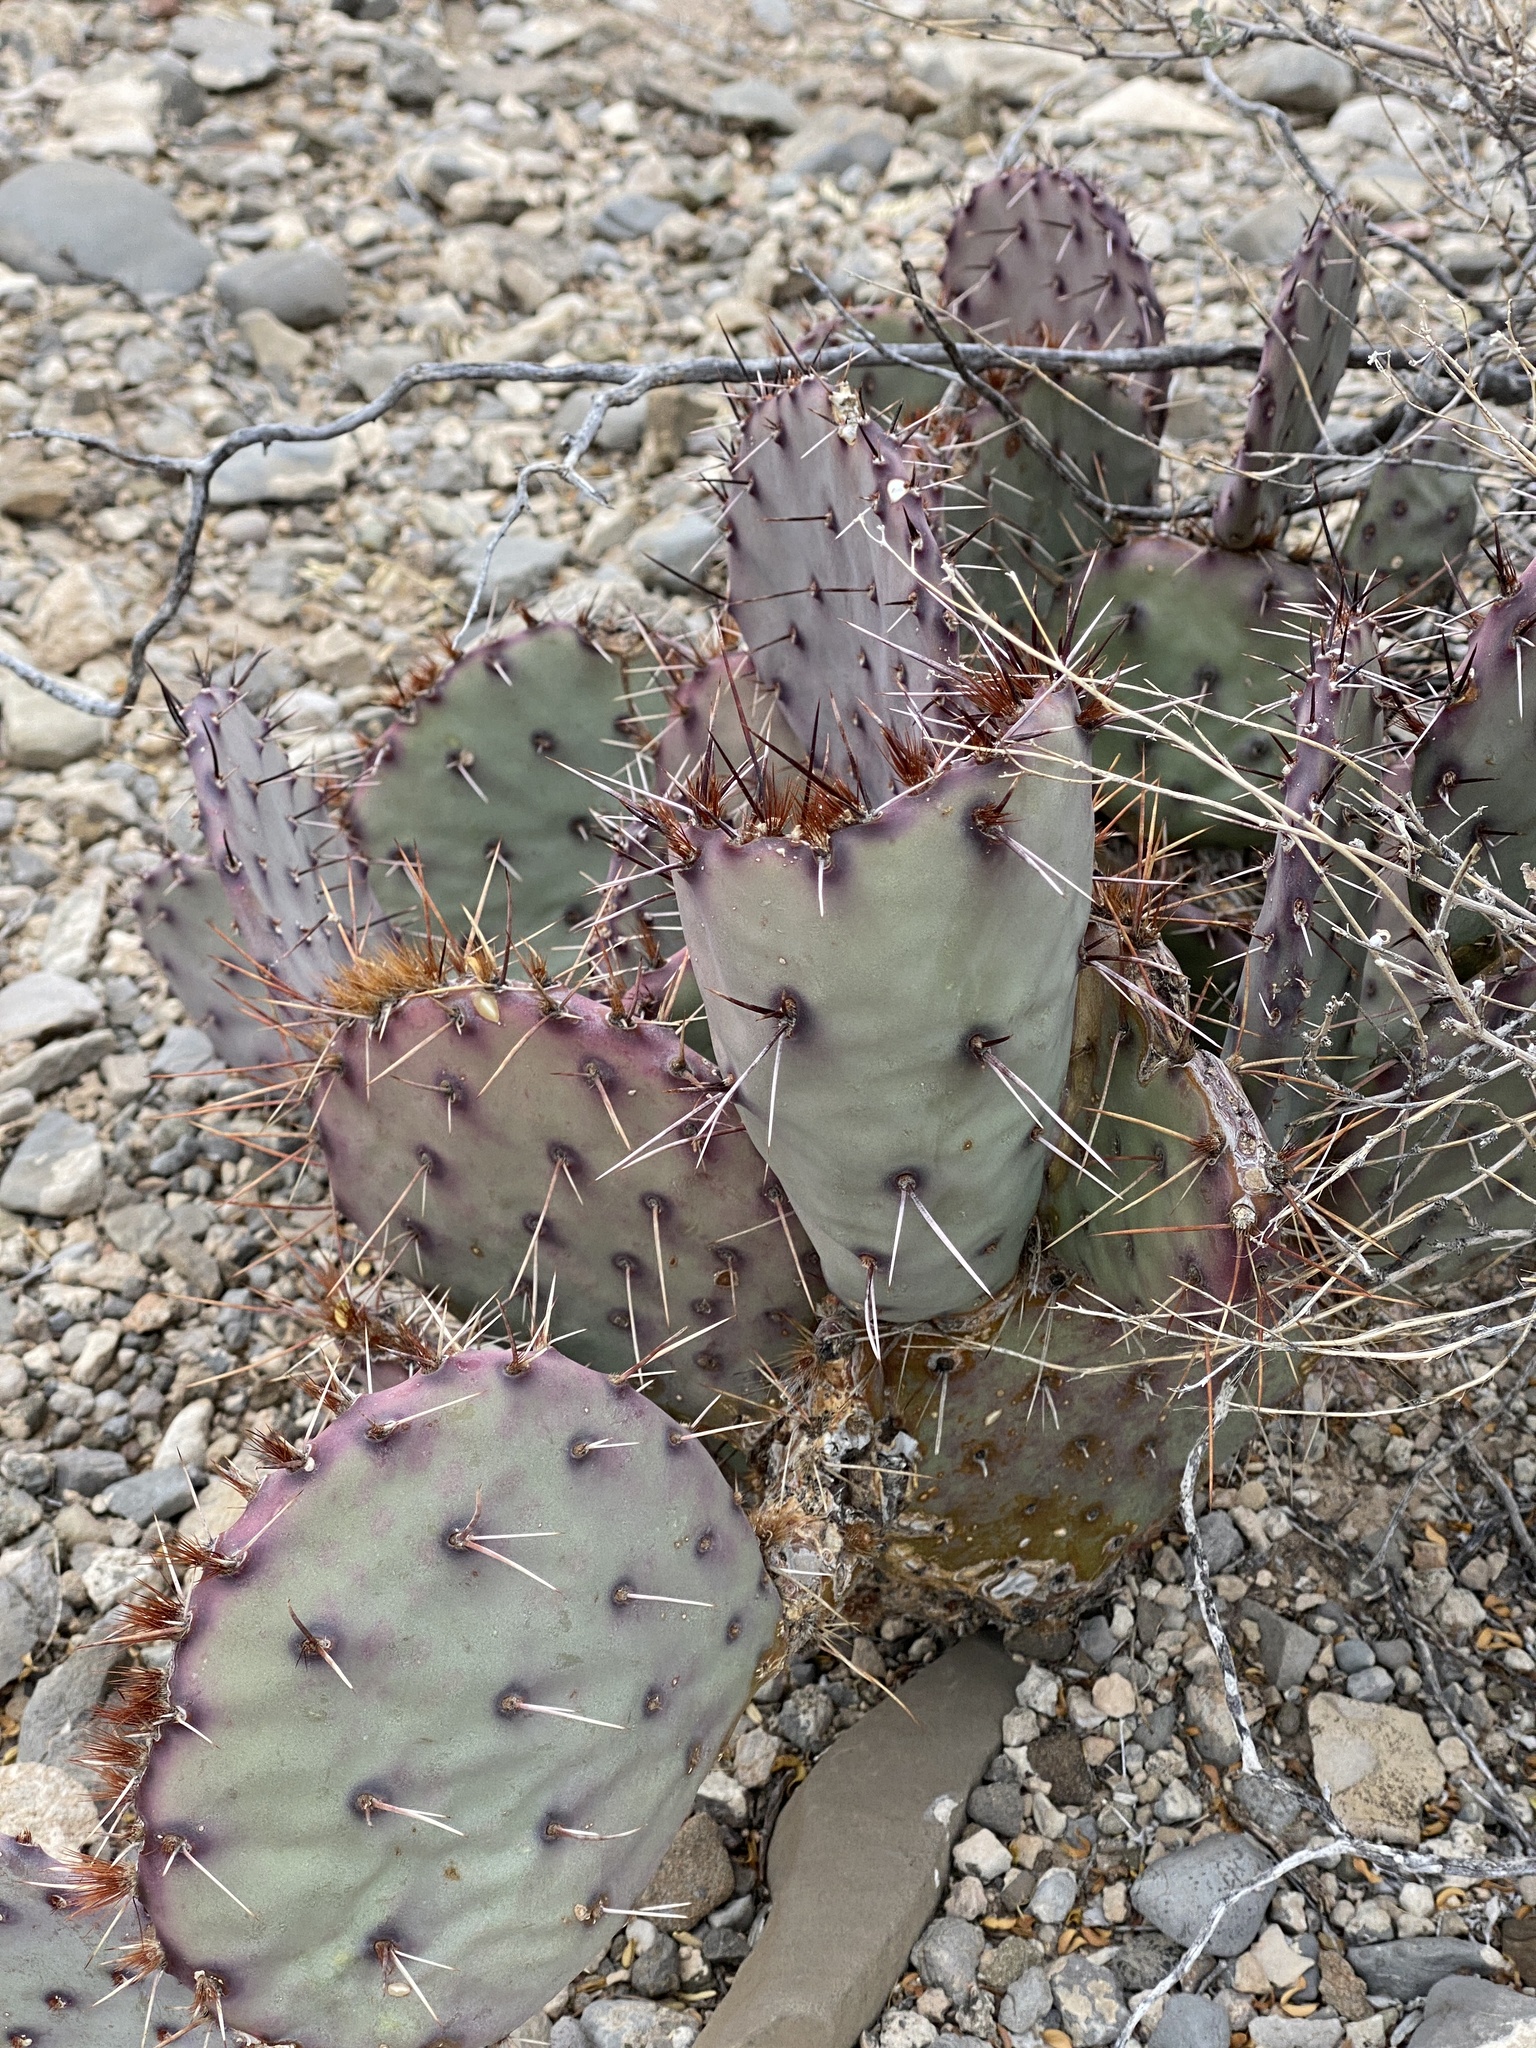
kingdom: Plantae
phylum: Tracheophyta
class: Magnoliopsida
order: Caryophyllales
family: Cactaceae
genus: Opuntia
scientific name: Opuntia macrocentra
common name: Purple prickly-pear
